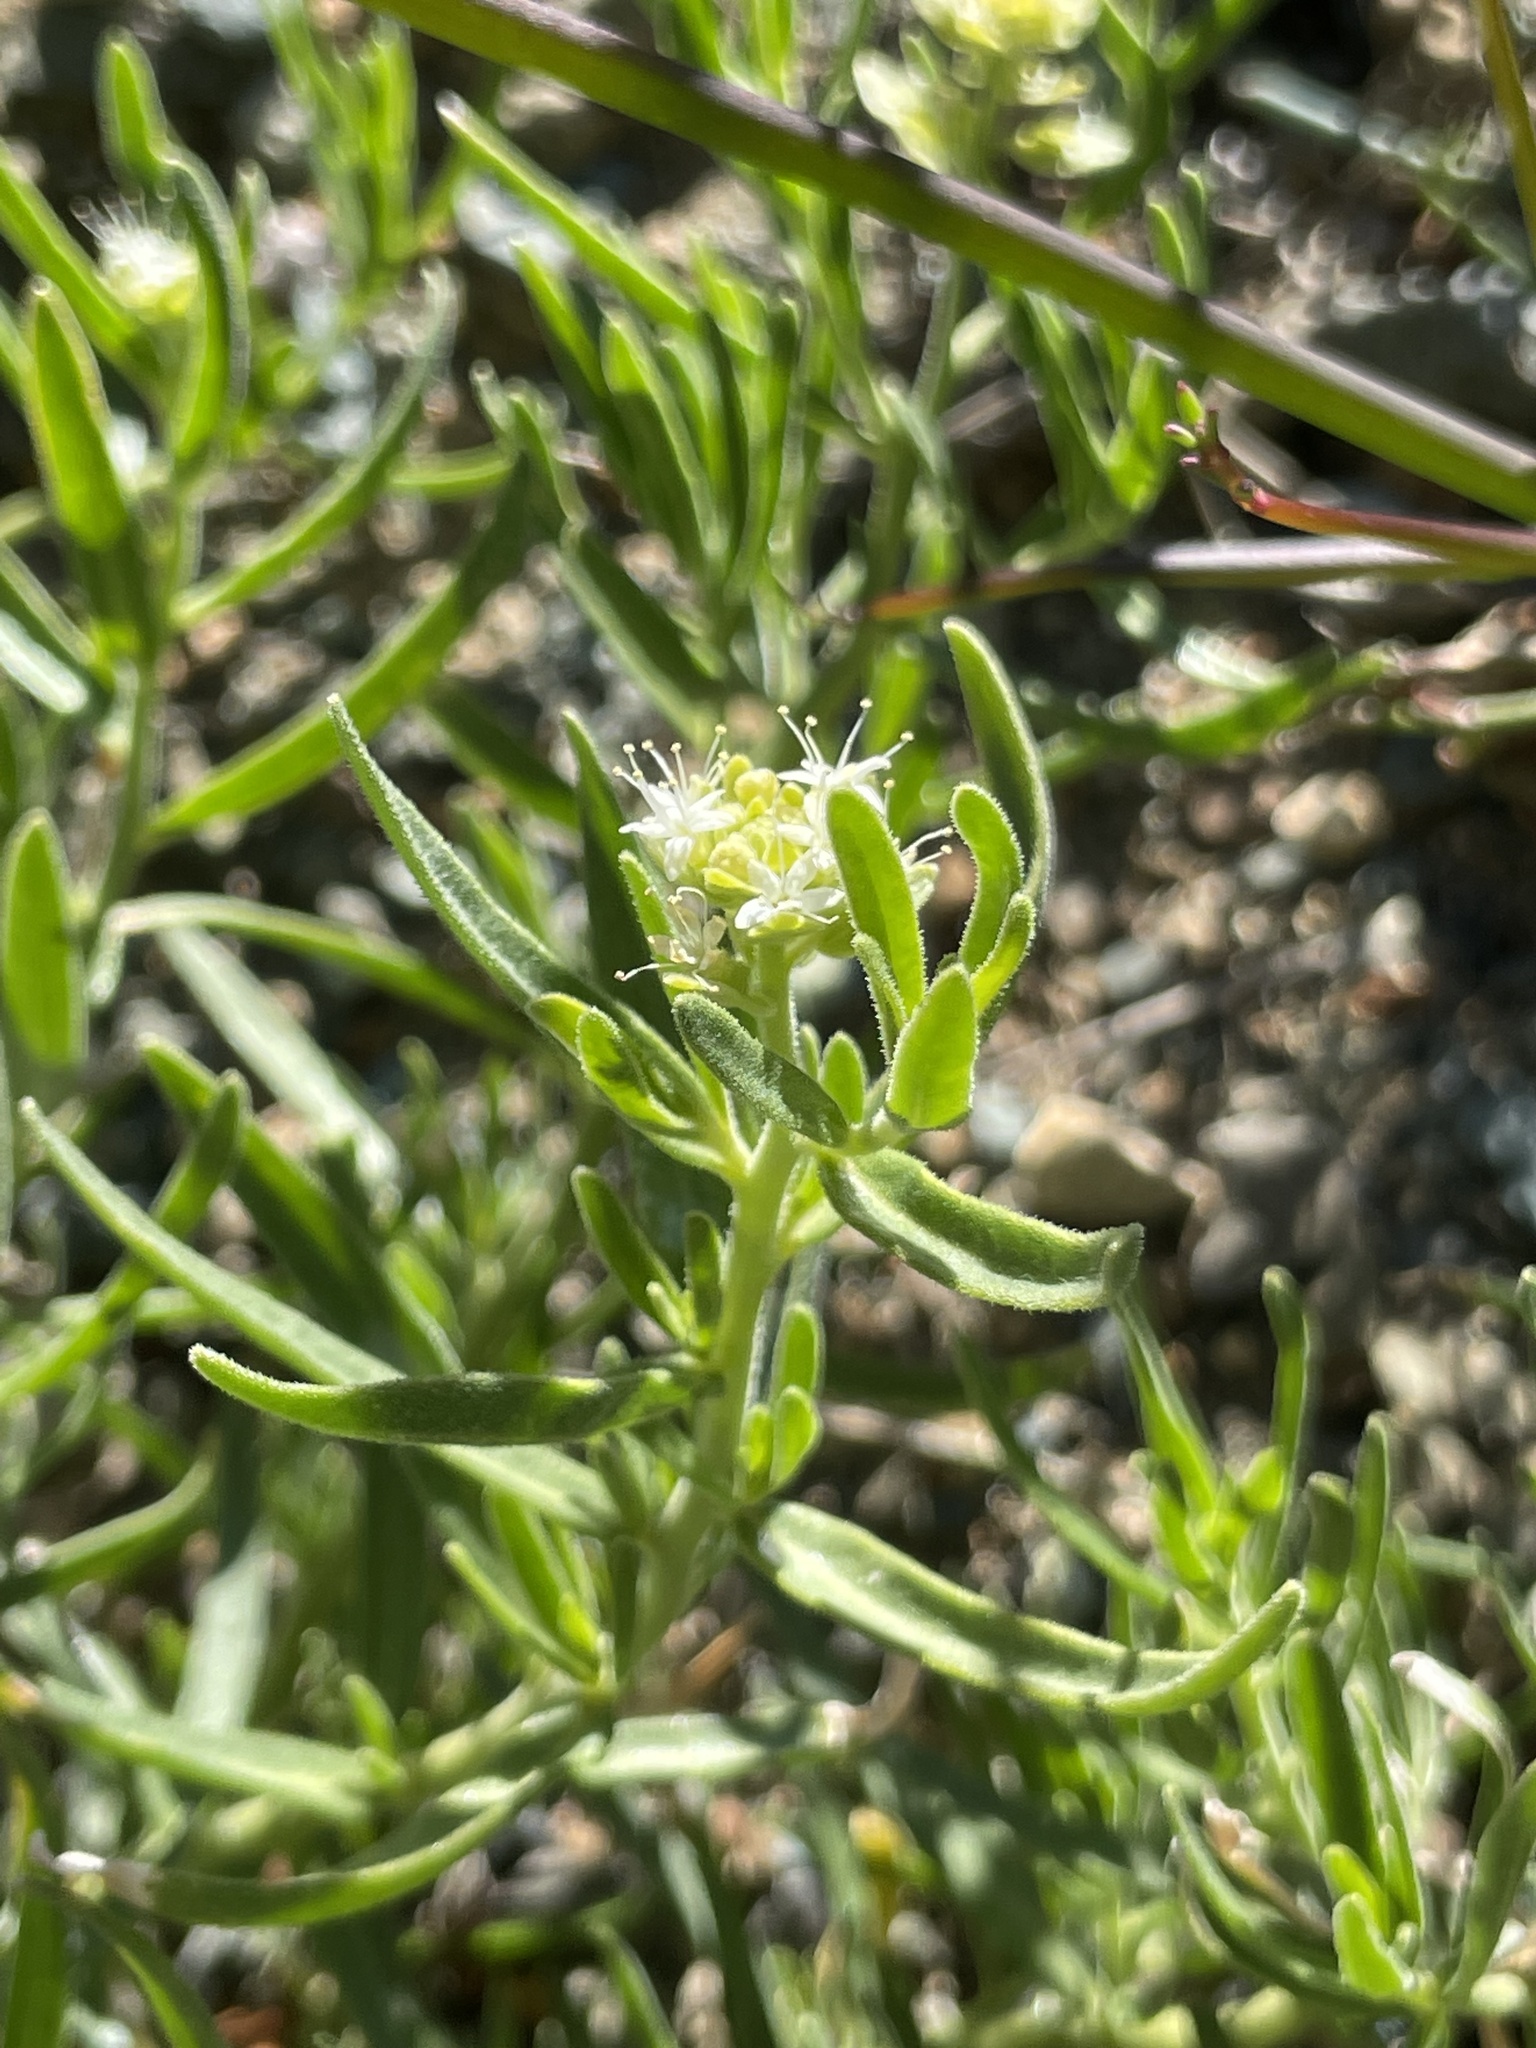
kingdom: Plantae
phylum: Tracheophyta
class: Magnoliopsida
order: Cornales
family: Loasaceae
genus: Petalonyx
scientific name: Petalonyx linearis
